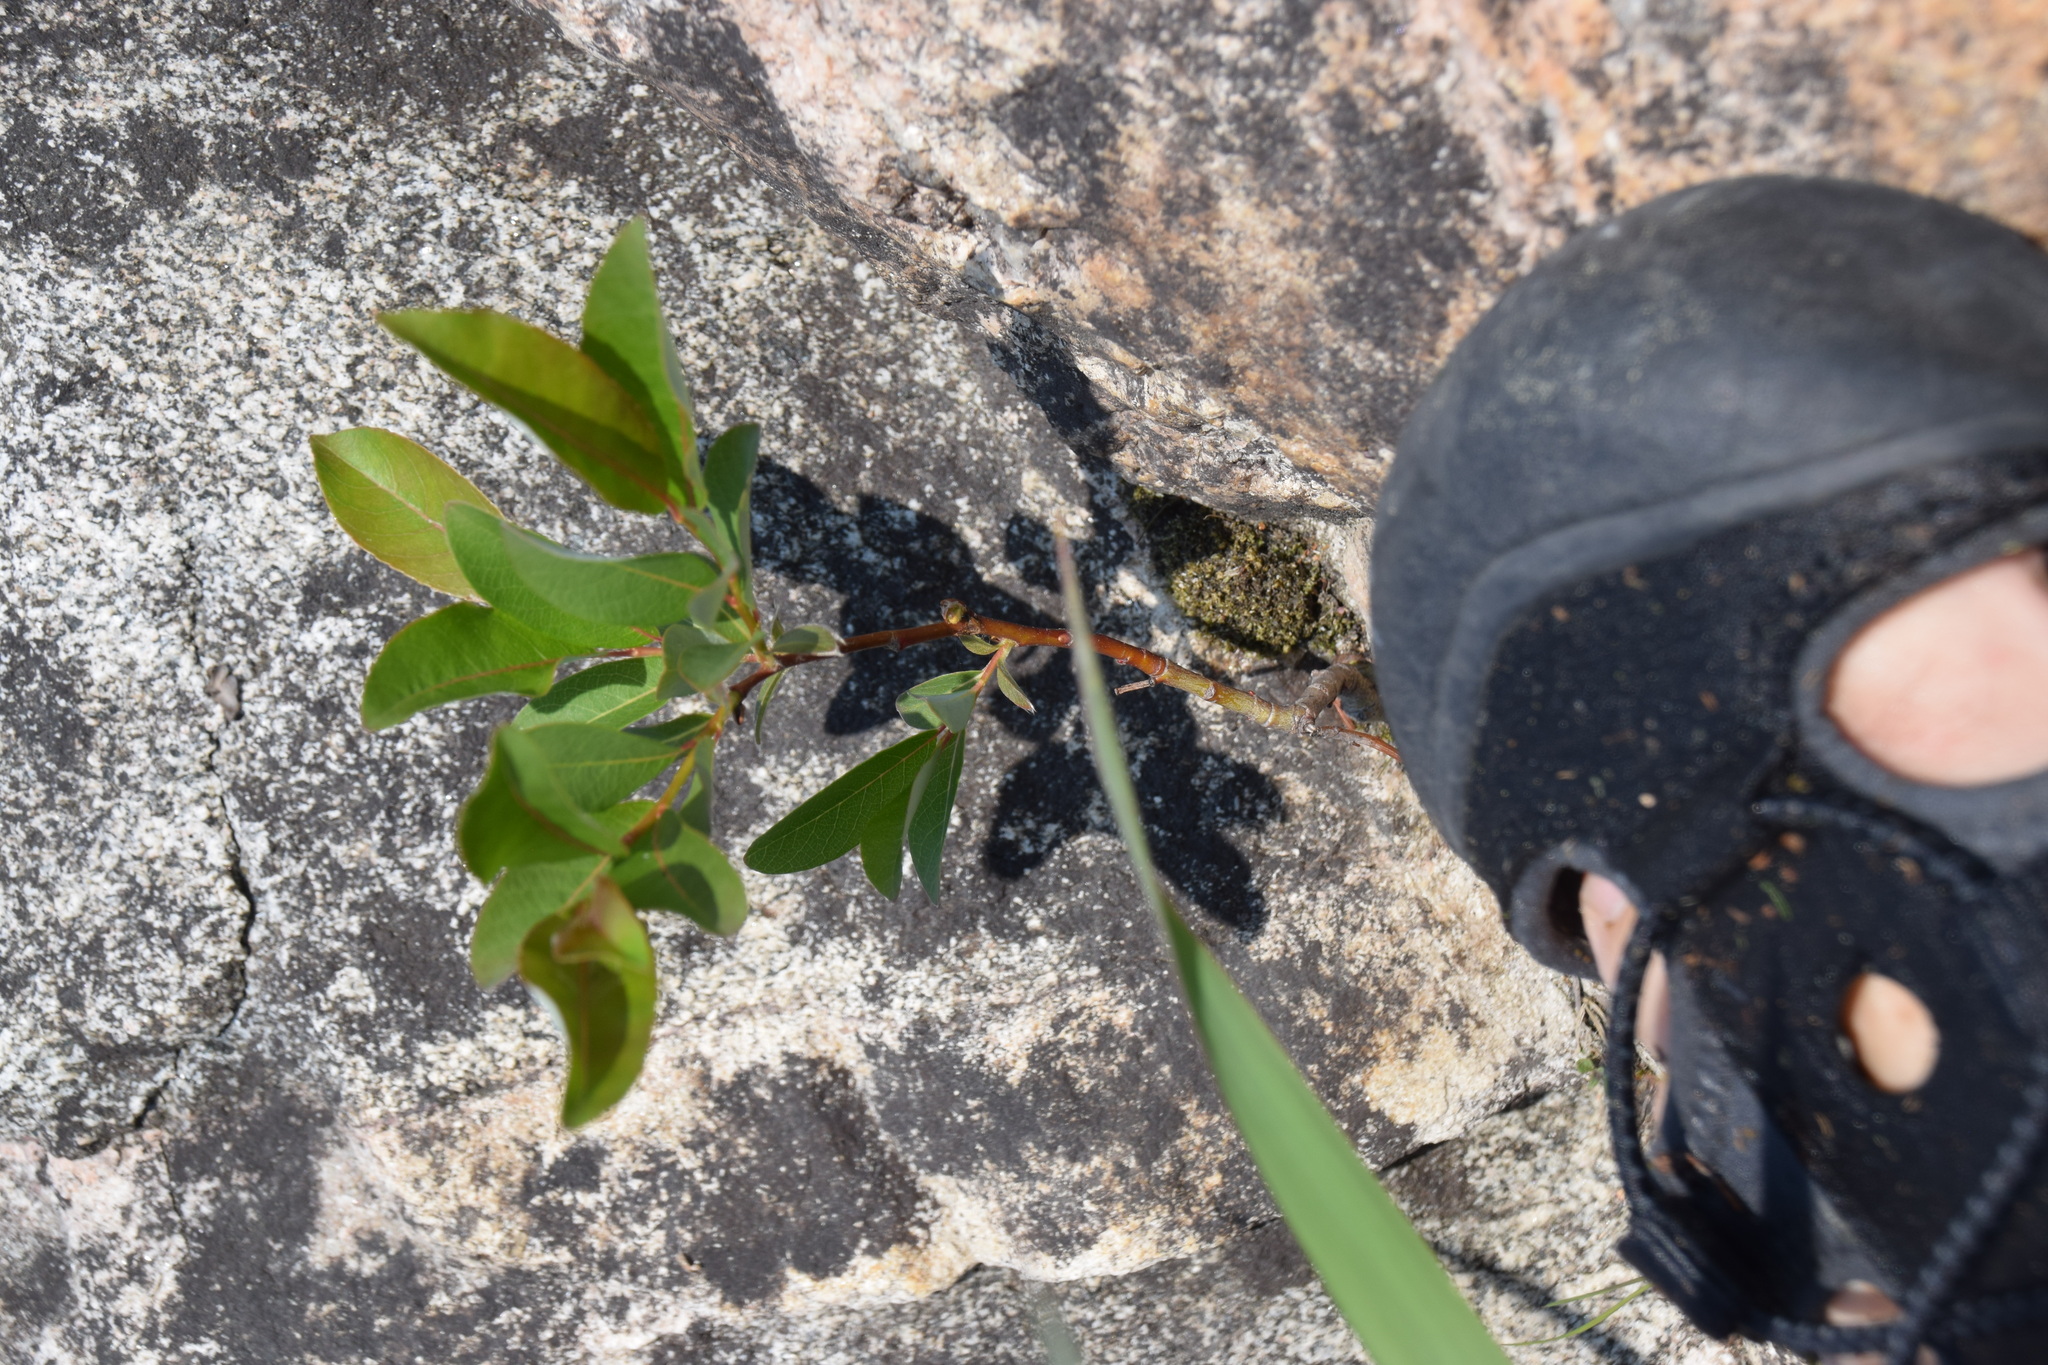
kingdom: Plantae
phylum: Tracheophyta
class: Magnoliopsida
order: Rosales
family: Rosaceae
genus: Prunus
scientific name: Prunus pumila
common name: Dwarf cherry
